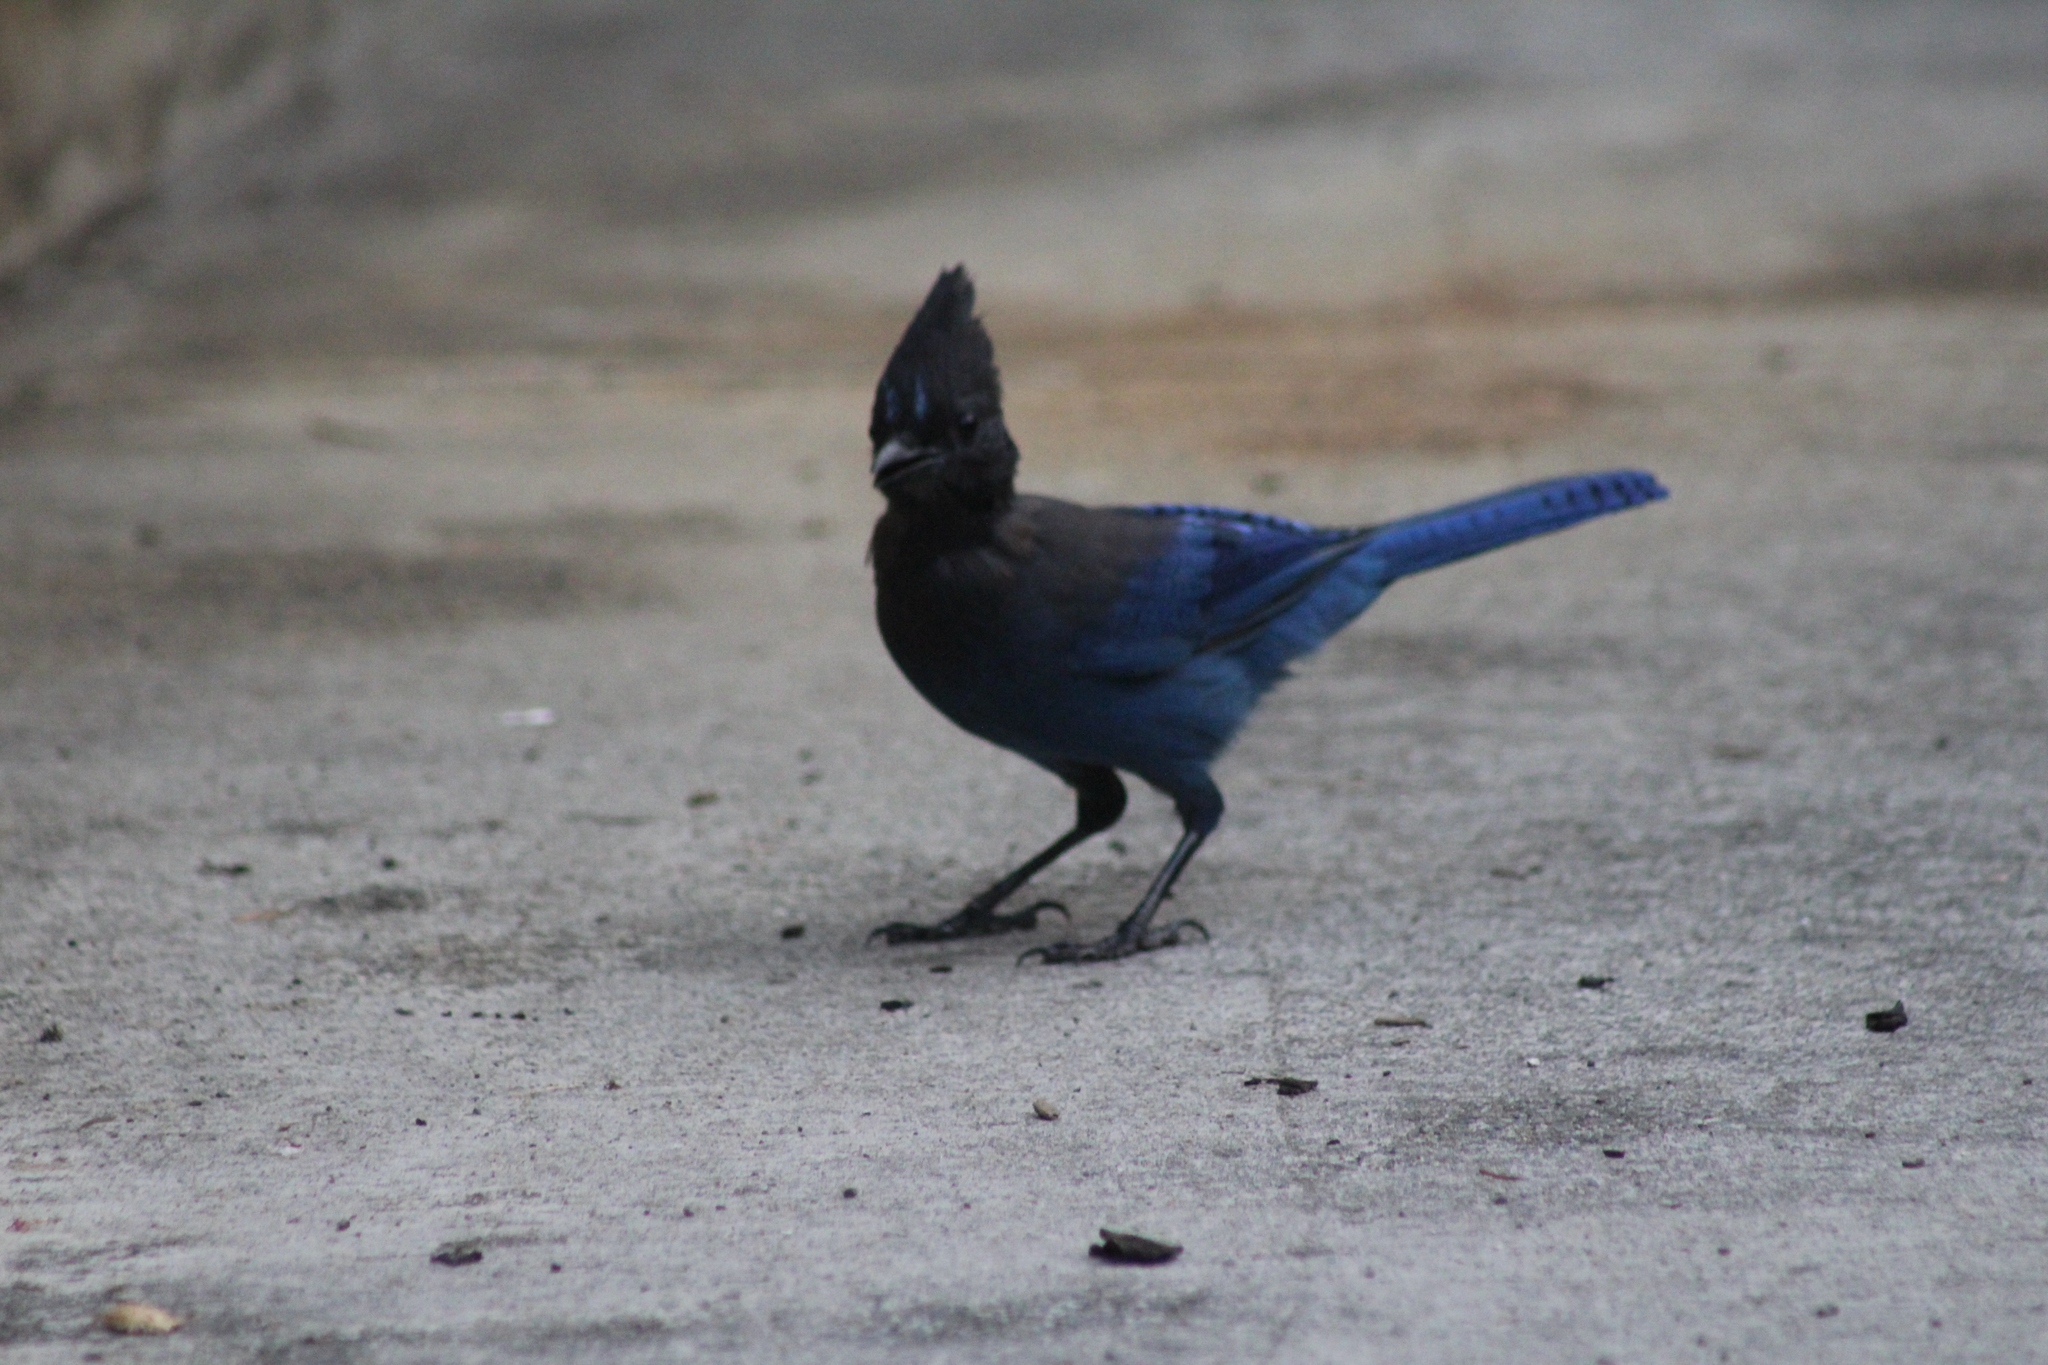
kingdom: Animalia
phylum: Chordata
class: Aves
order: Passeriformes
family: Corvidae
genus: Cyanocitta
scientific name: Cyanocitta stelleri
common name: Steller's jay
